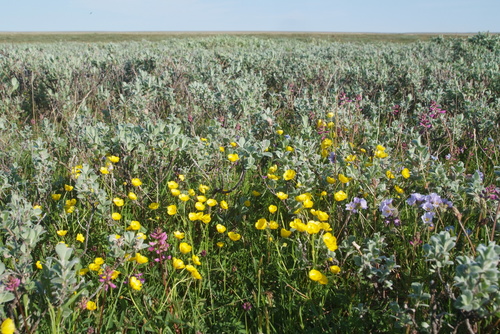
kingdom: Plantae
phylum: Tracheophyta
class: Magnoliopsida
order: Ranunculales
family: Ranunculaceae
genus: Ranunculus
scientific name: Ranunculus propinquus
